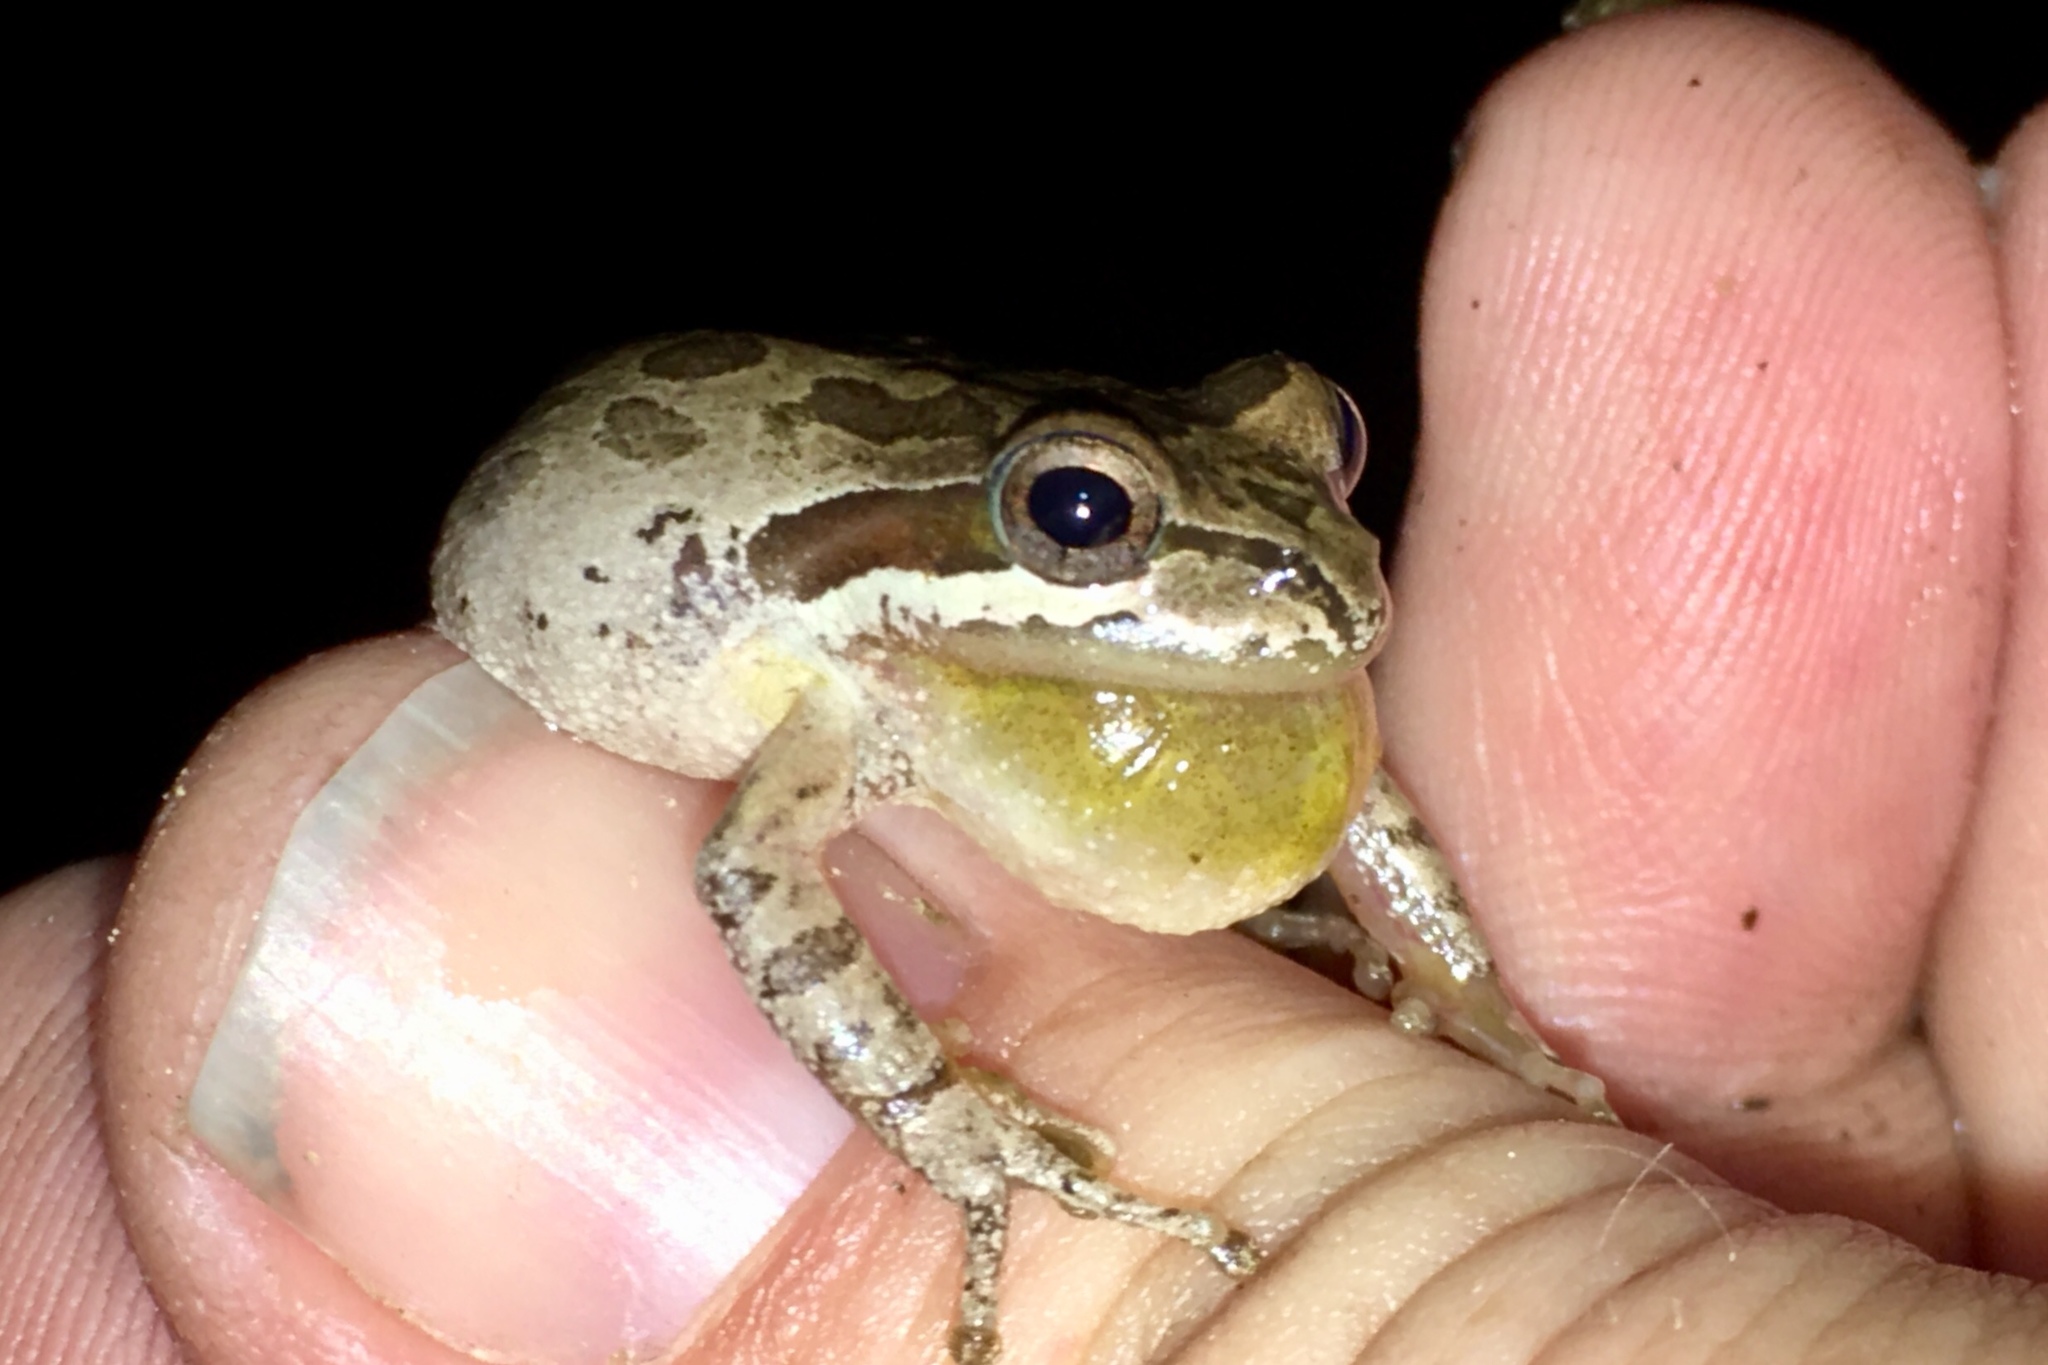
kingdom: Animalia
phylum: Chordata
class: Amphibia
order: Anura
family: Hylidae
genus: Pseudacris
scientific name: Pseudacris regilla
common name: Pacific chorus frog
